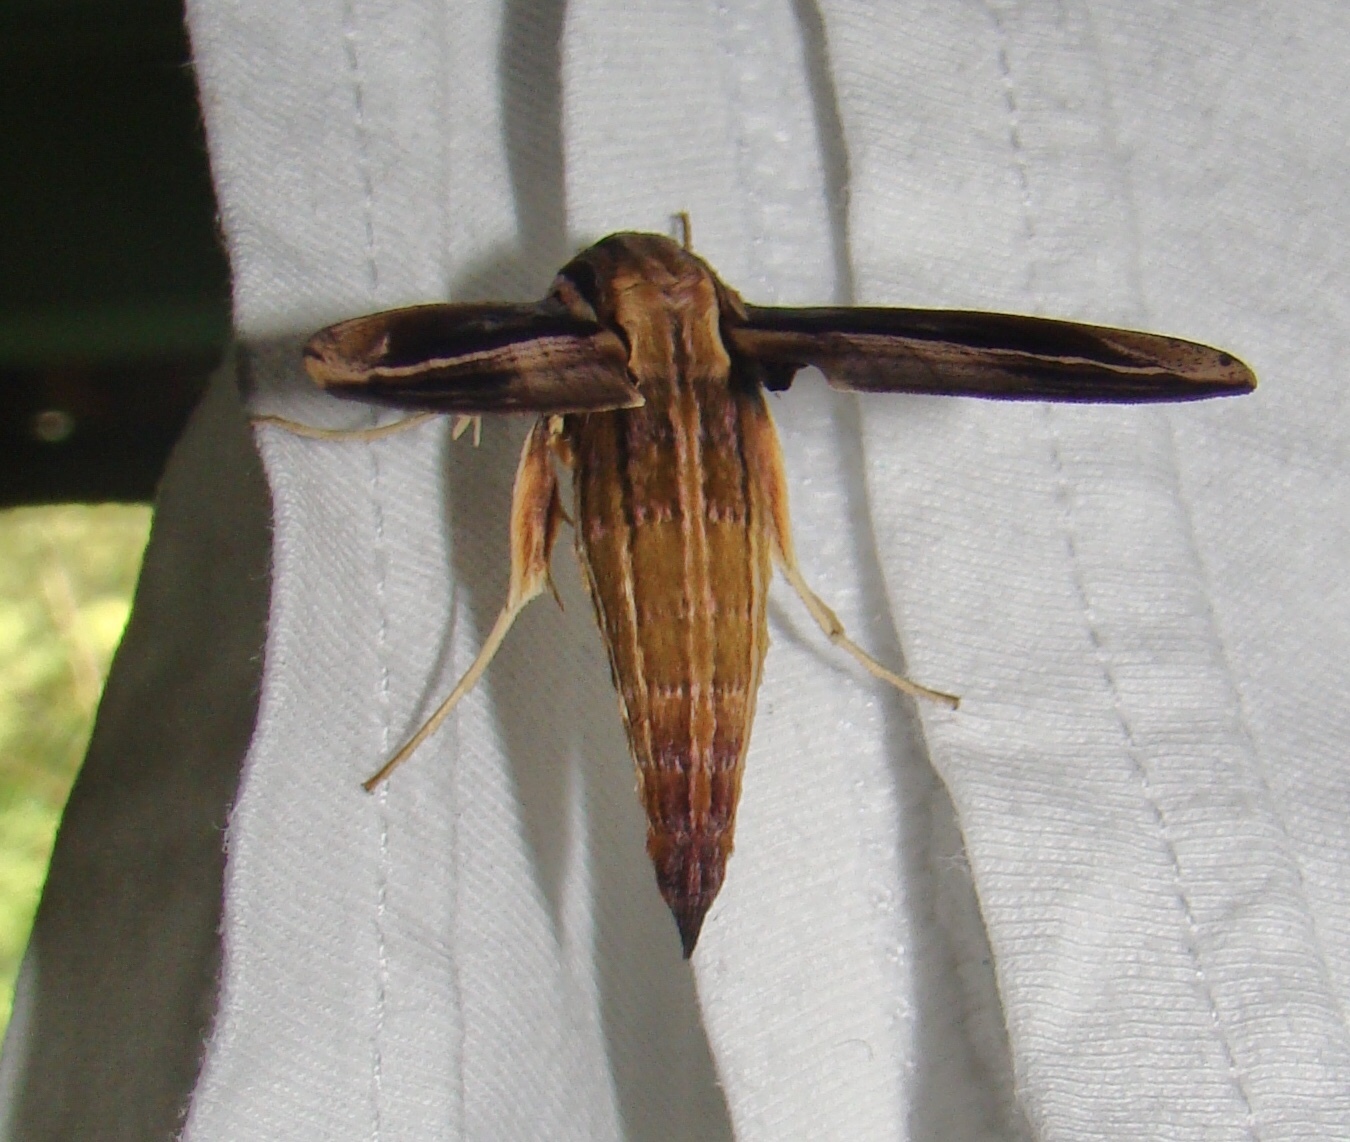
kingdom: Animalia
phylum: Arthropoda
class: Insecta
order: Lepidoptera
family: Sphingidae
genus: Xylophanes
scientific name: Xylophanes thyelia
